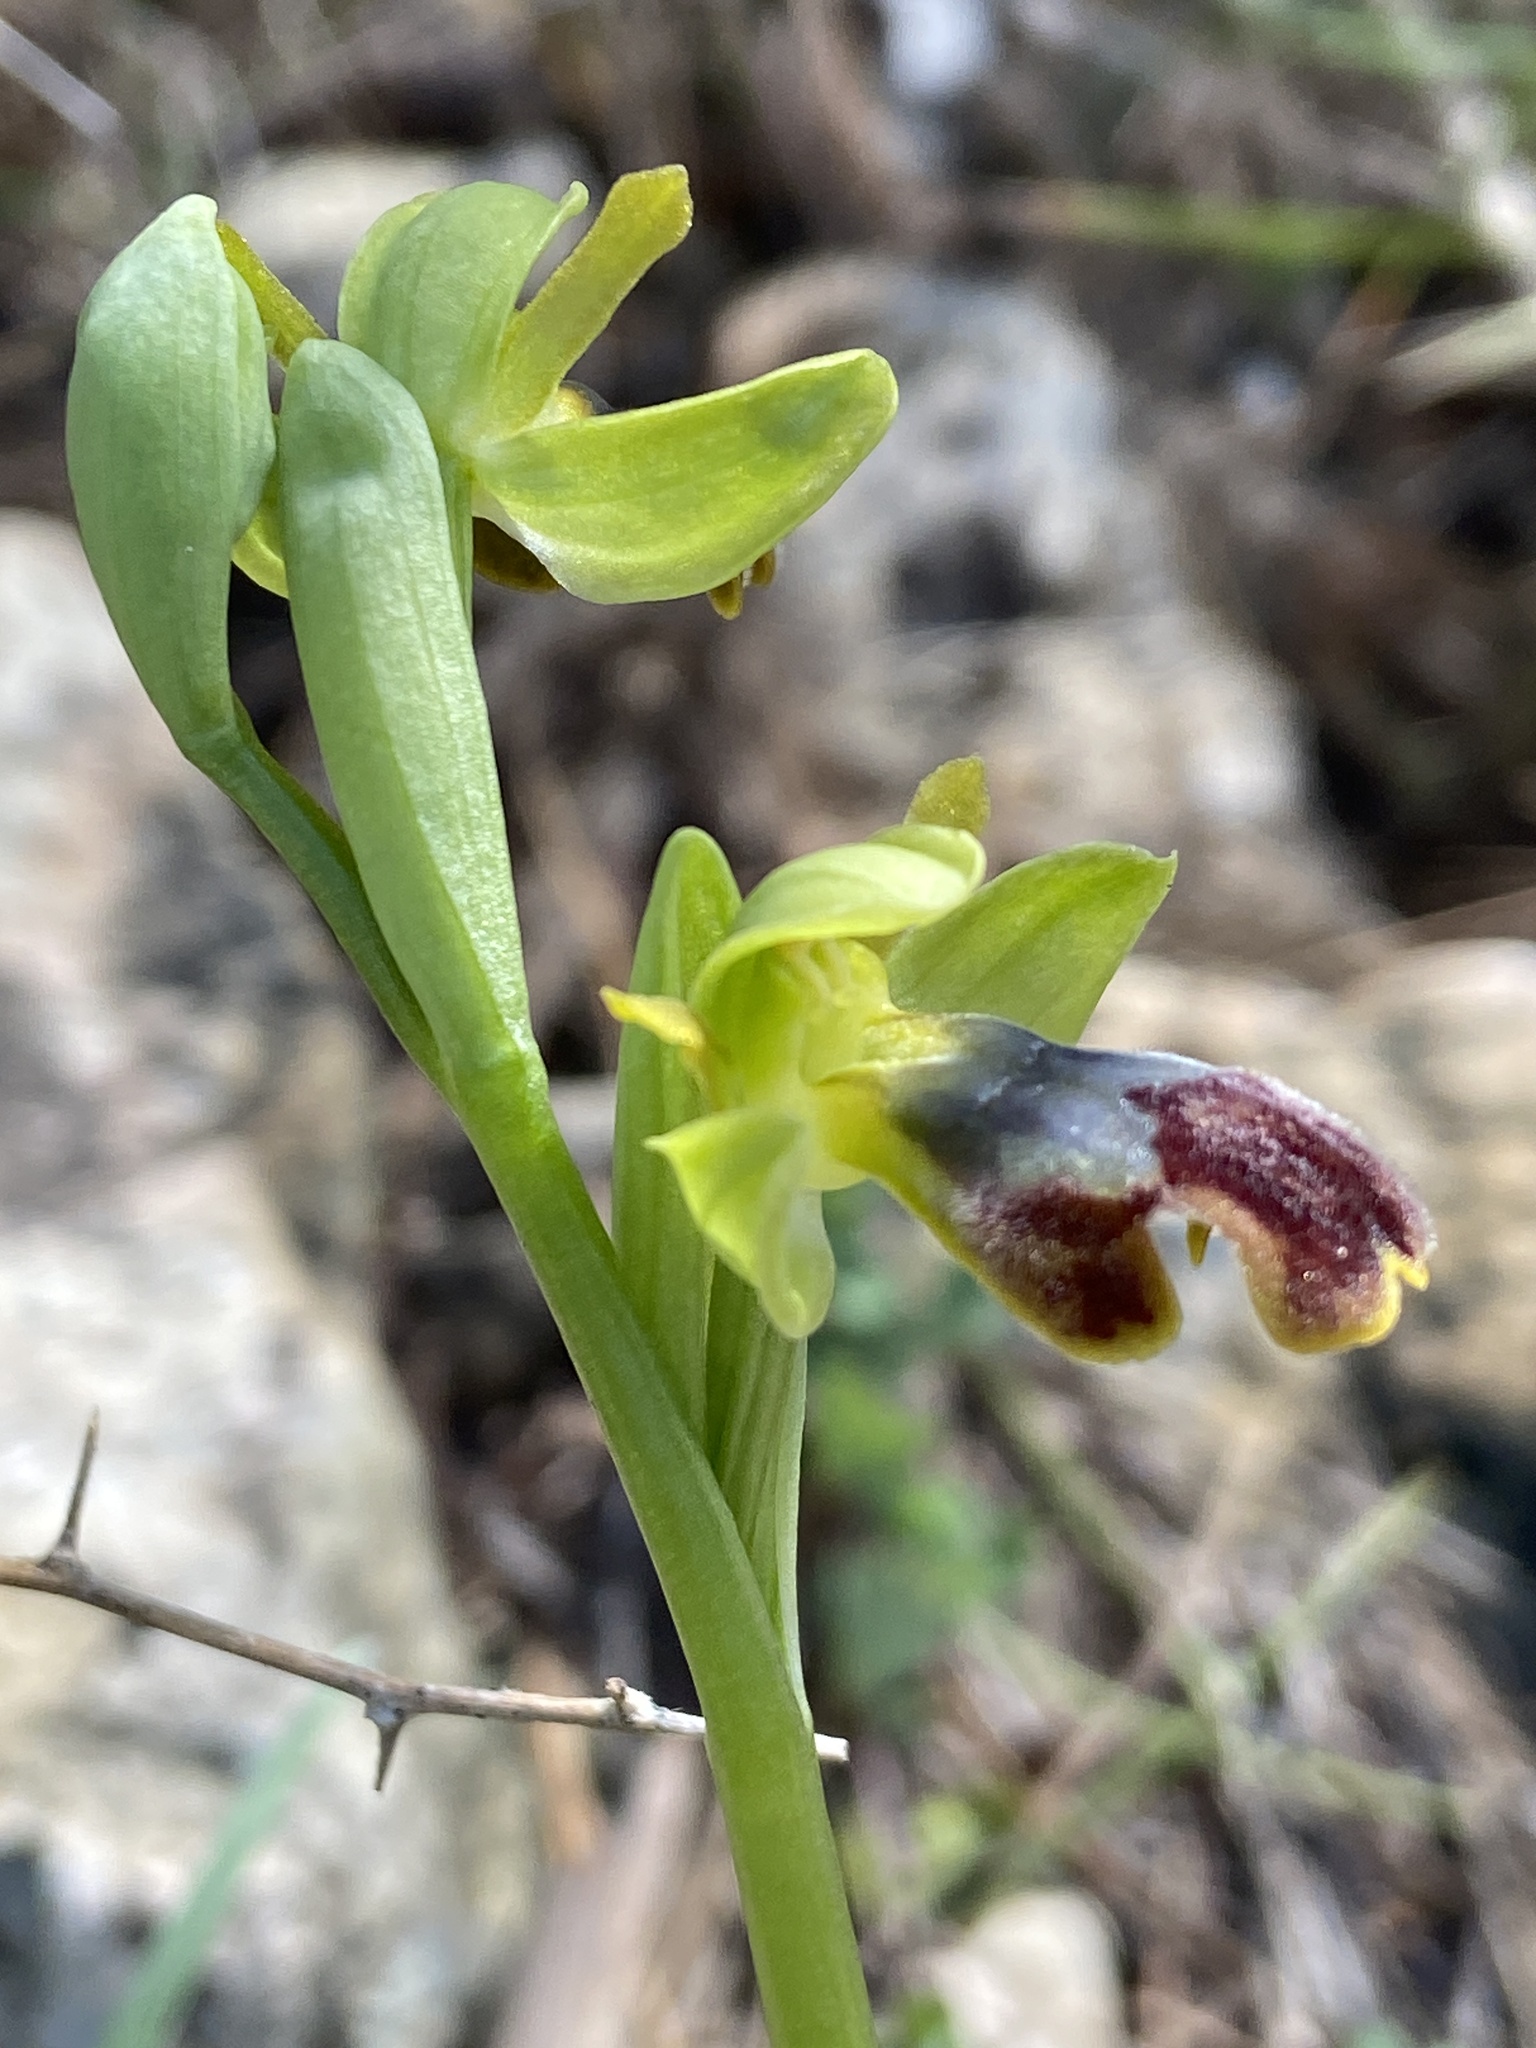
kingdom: Plantae
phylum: Tracheophyta
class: Liliopsida
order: Asparagales
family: Orchidaceae
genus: Ophrys
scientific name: Ophrys fusca
